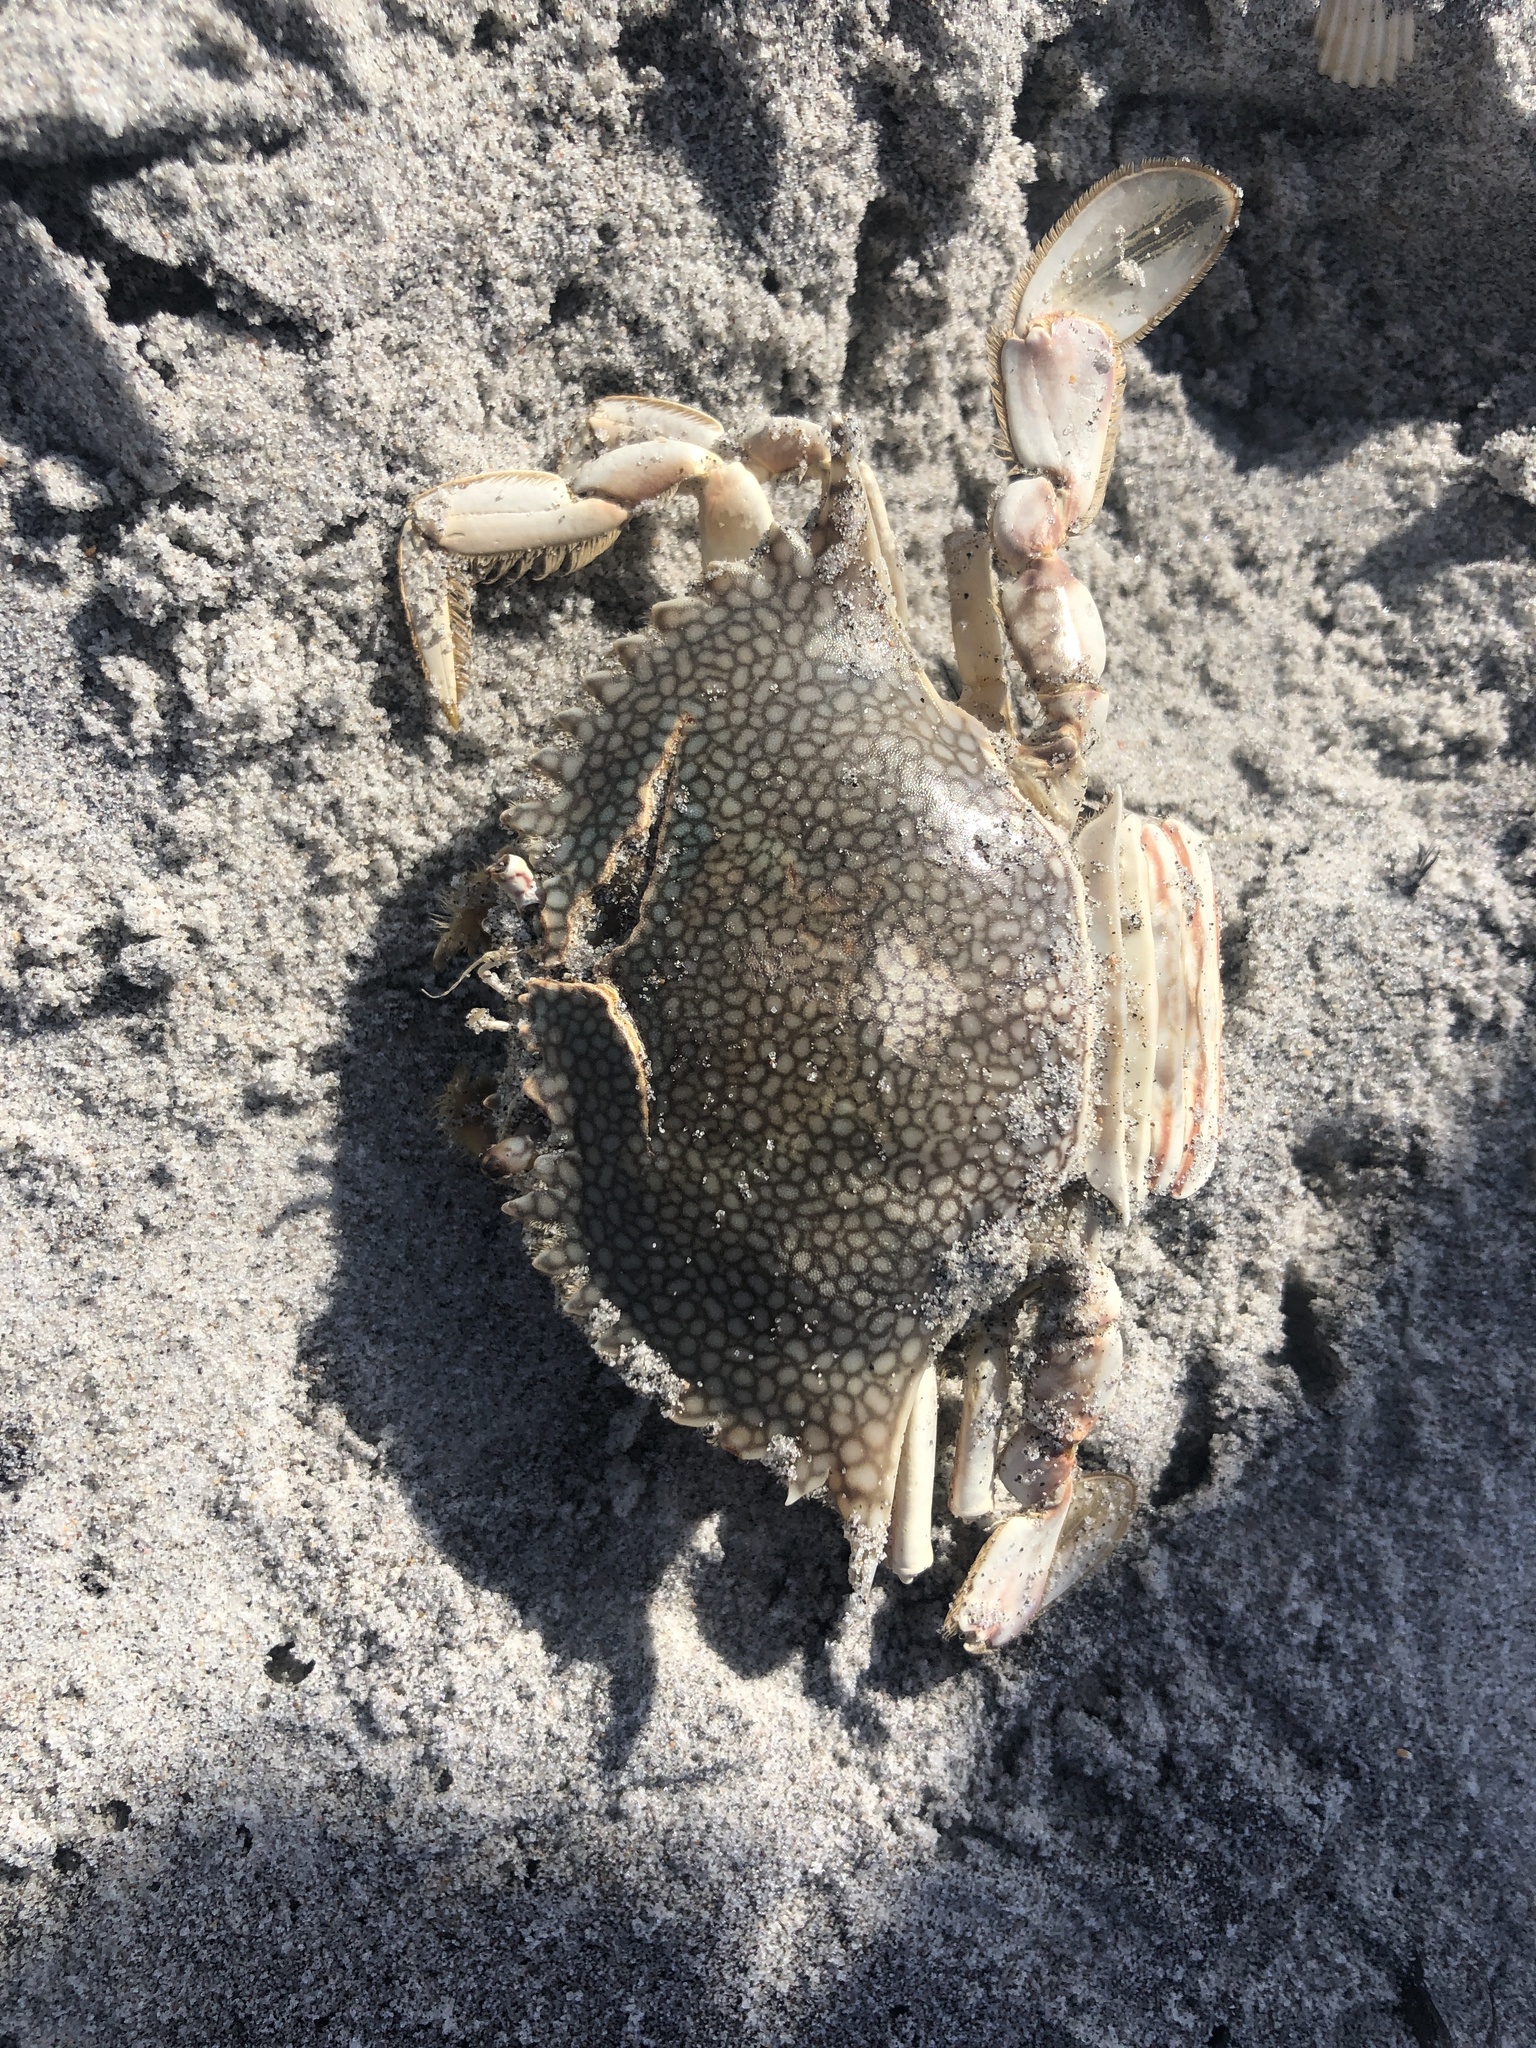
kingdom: Animalia
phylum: Arthropoda
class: Malacostraca
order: Decapoda
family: Portunidae
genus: Arenaeus
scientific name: Arenaeus cribrarius
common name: Speckled crab
